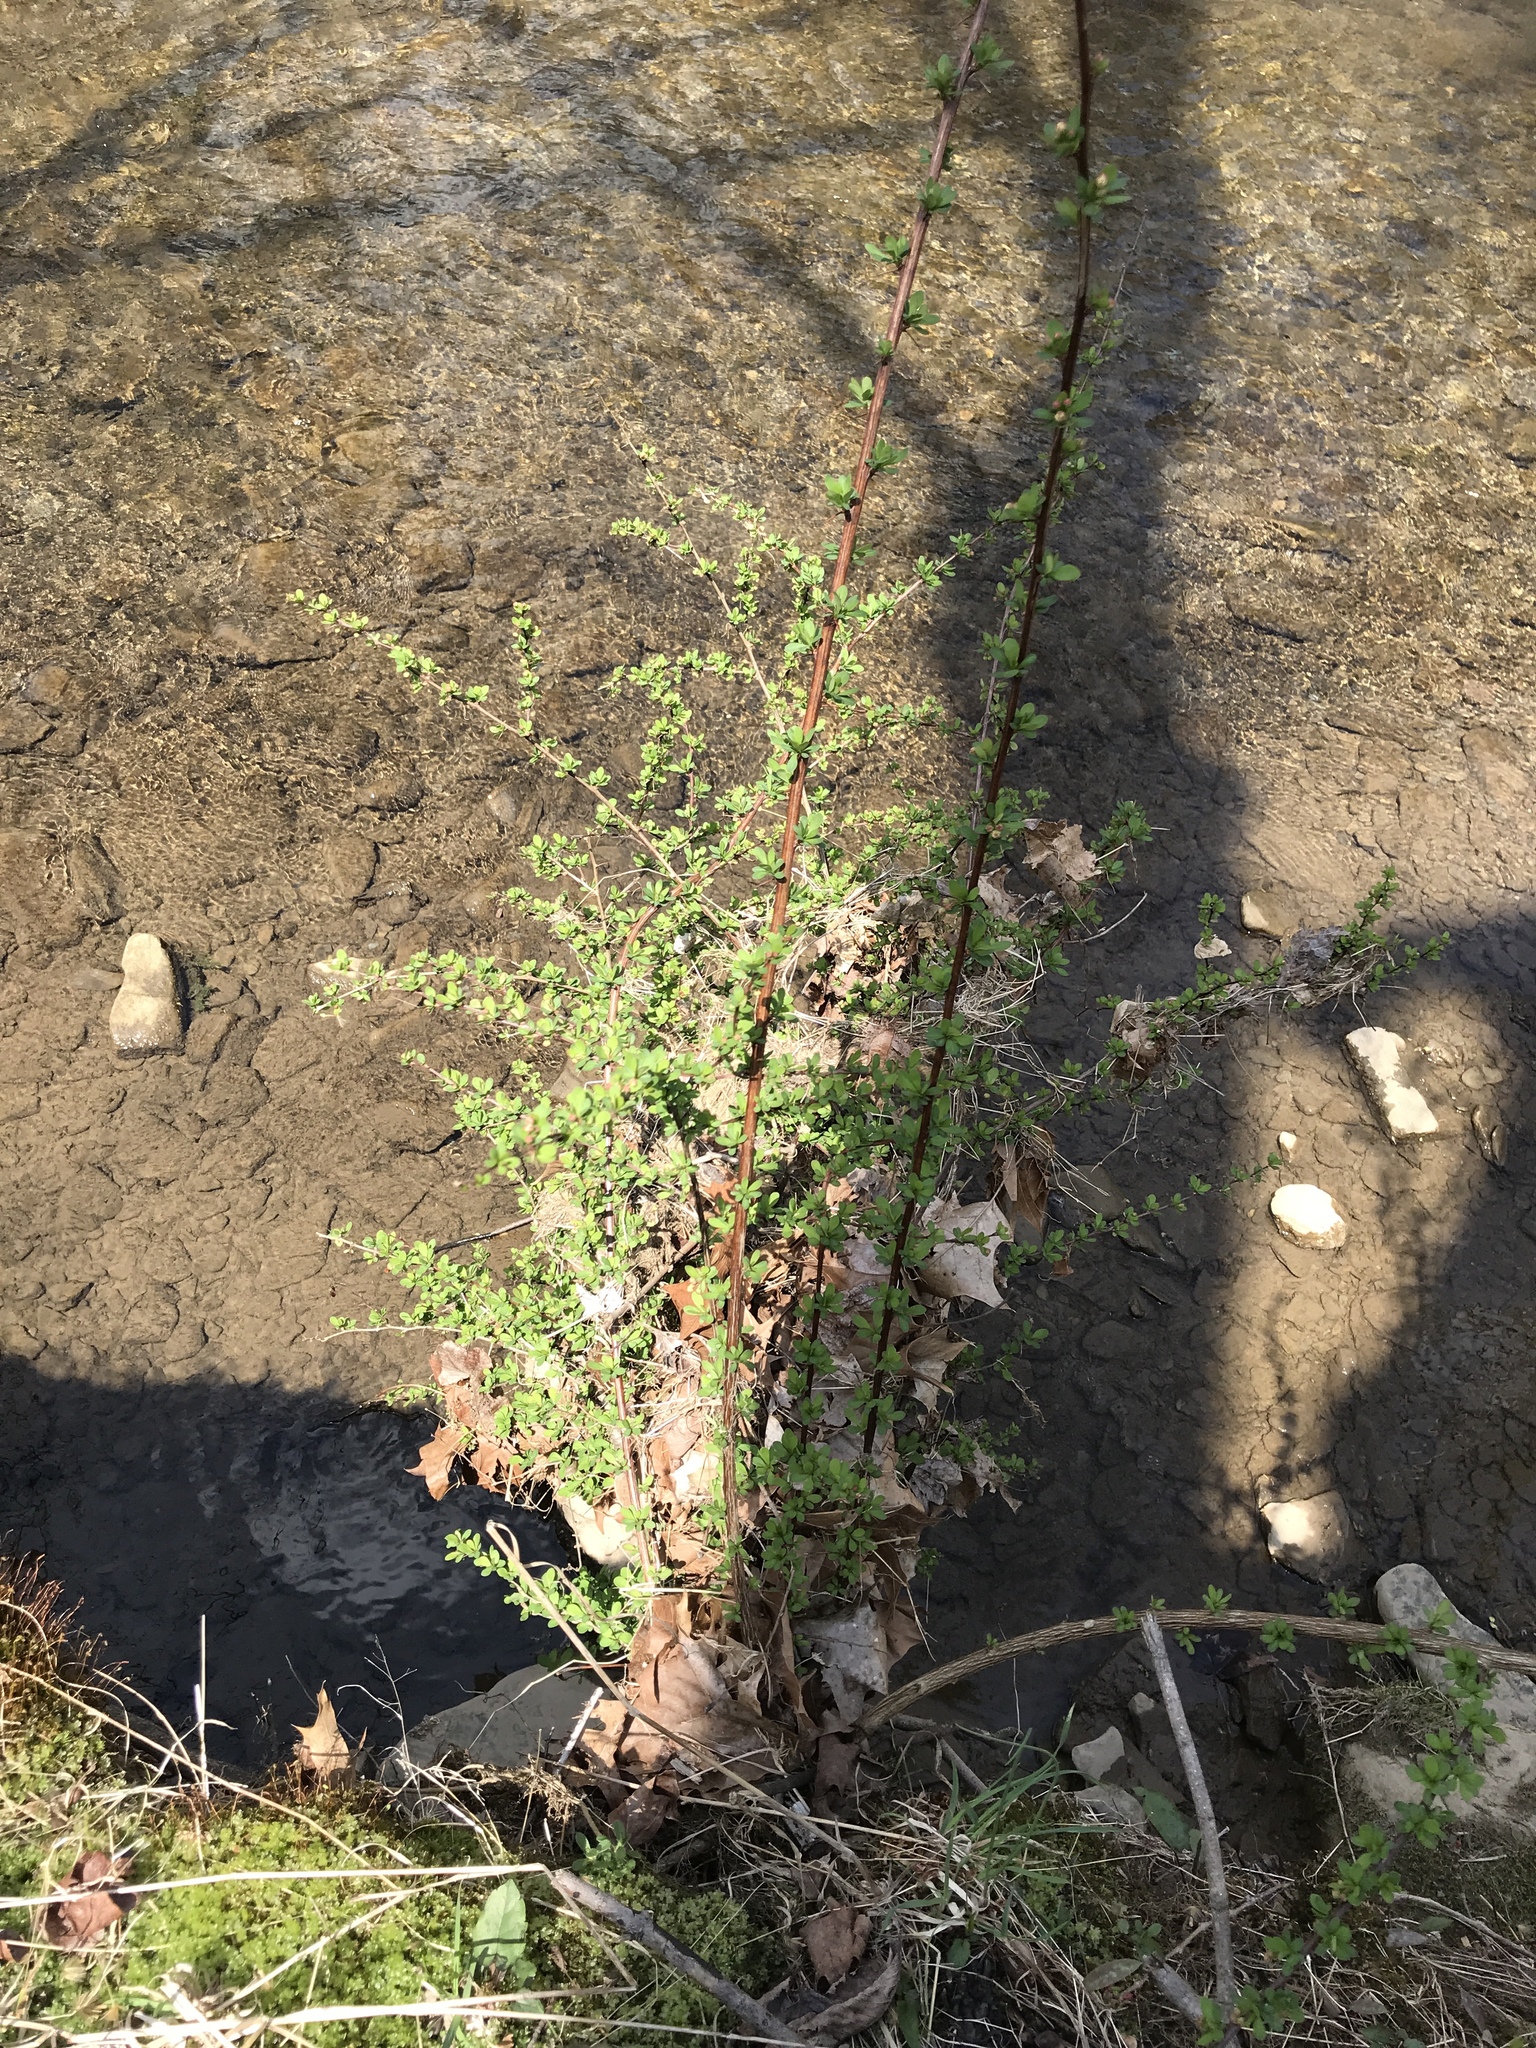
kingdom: Plantae
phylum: Tracheophyta
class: Magnoliopsida
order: Ranunculales
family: Berberidaceae
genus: Berberis
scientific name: Berberis thunbergii
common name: Japanese barberry
